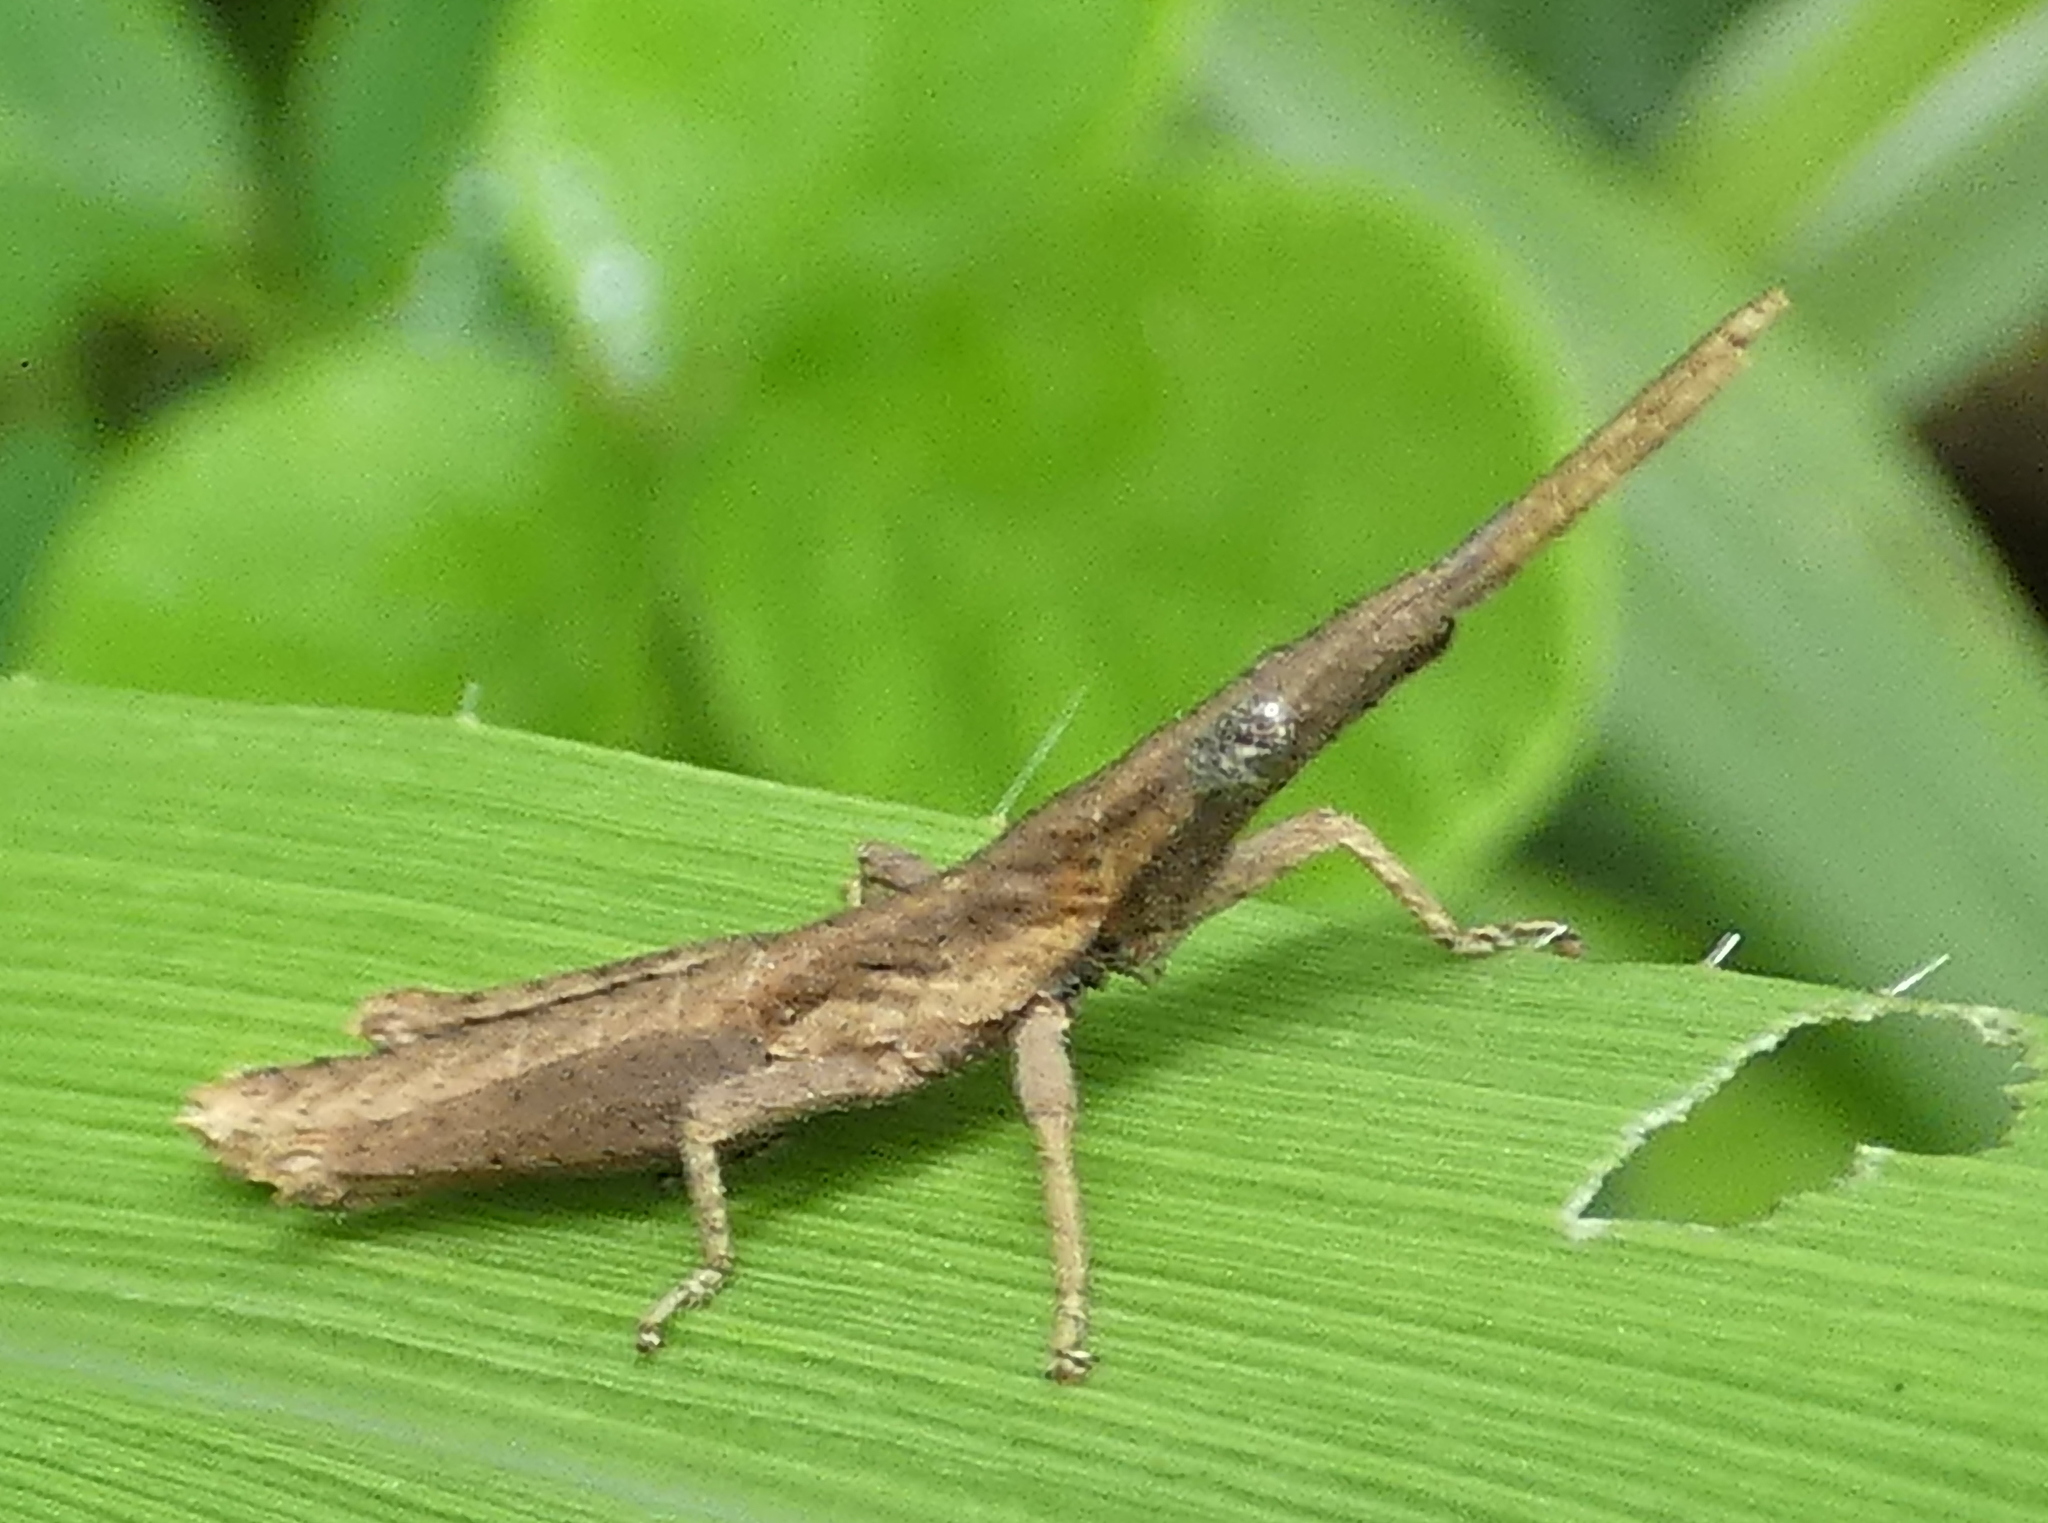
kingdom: Animalia
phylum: Arthropoda
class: Insecta
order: Orthoptera
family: Pyrgomorphidae
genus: Algete
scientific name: Algete brunneri
